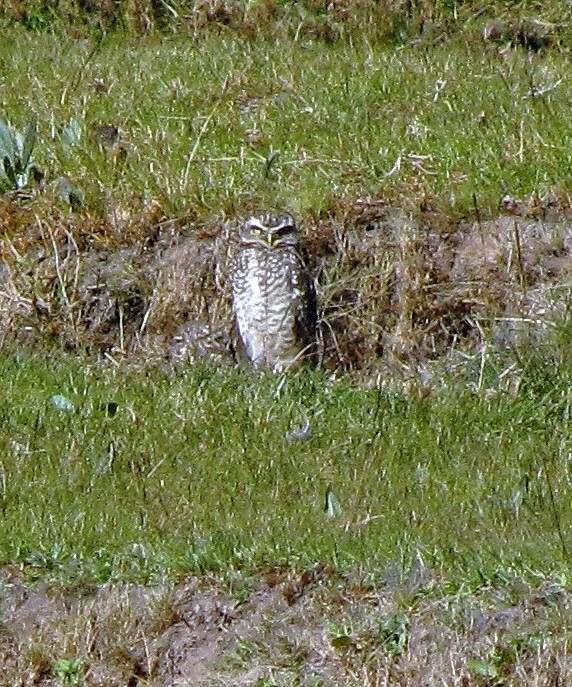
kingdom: Animalia
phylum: Chordata
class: Aves
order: Strigiformes
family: Strigidae
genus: Athene
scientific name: Athene cunicularia
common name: Burrowing owl
